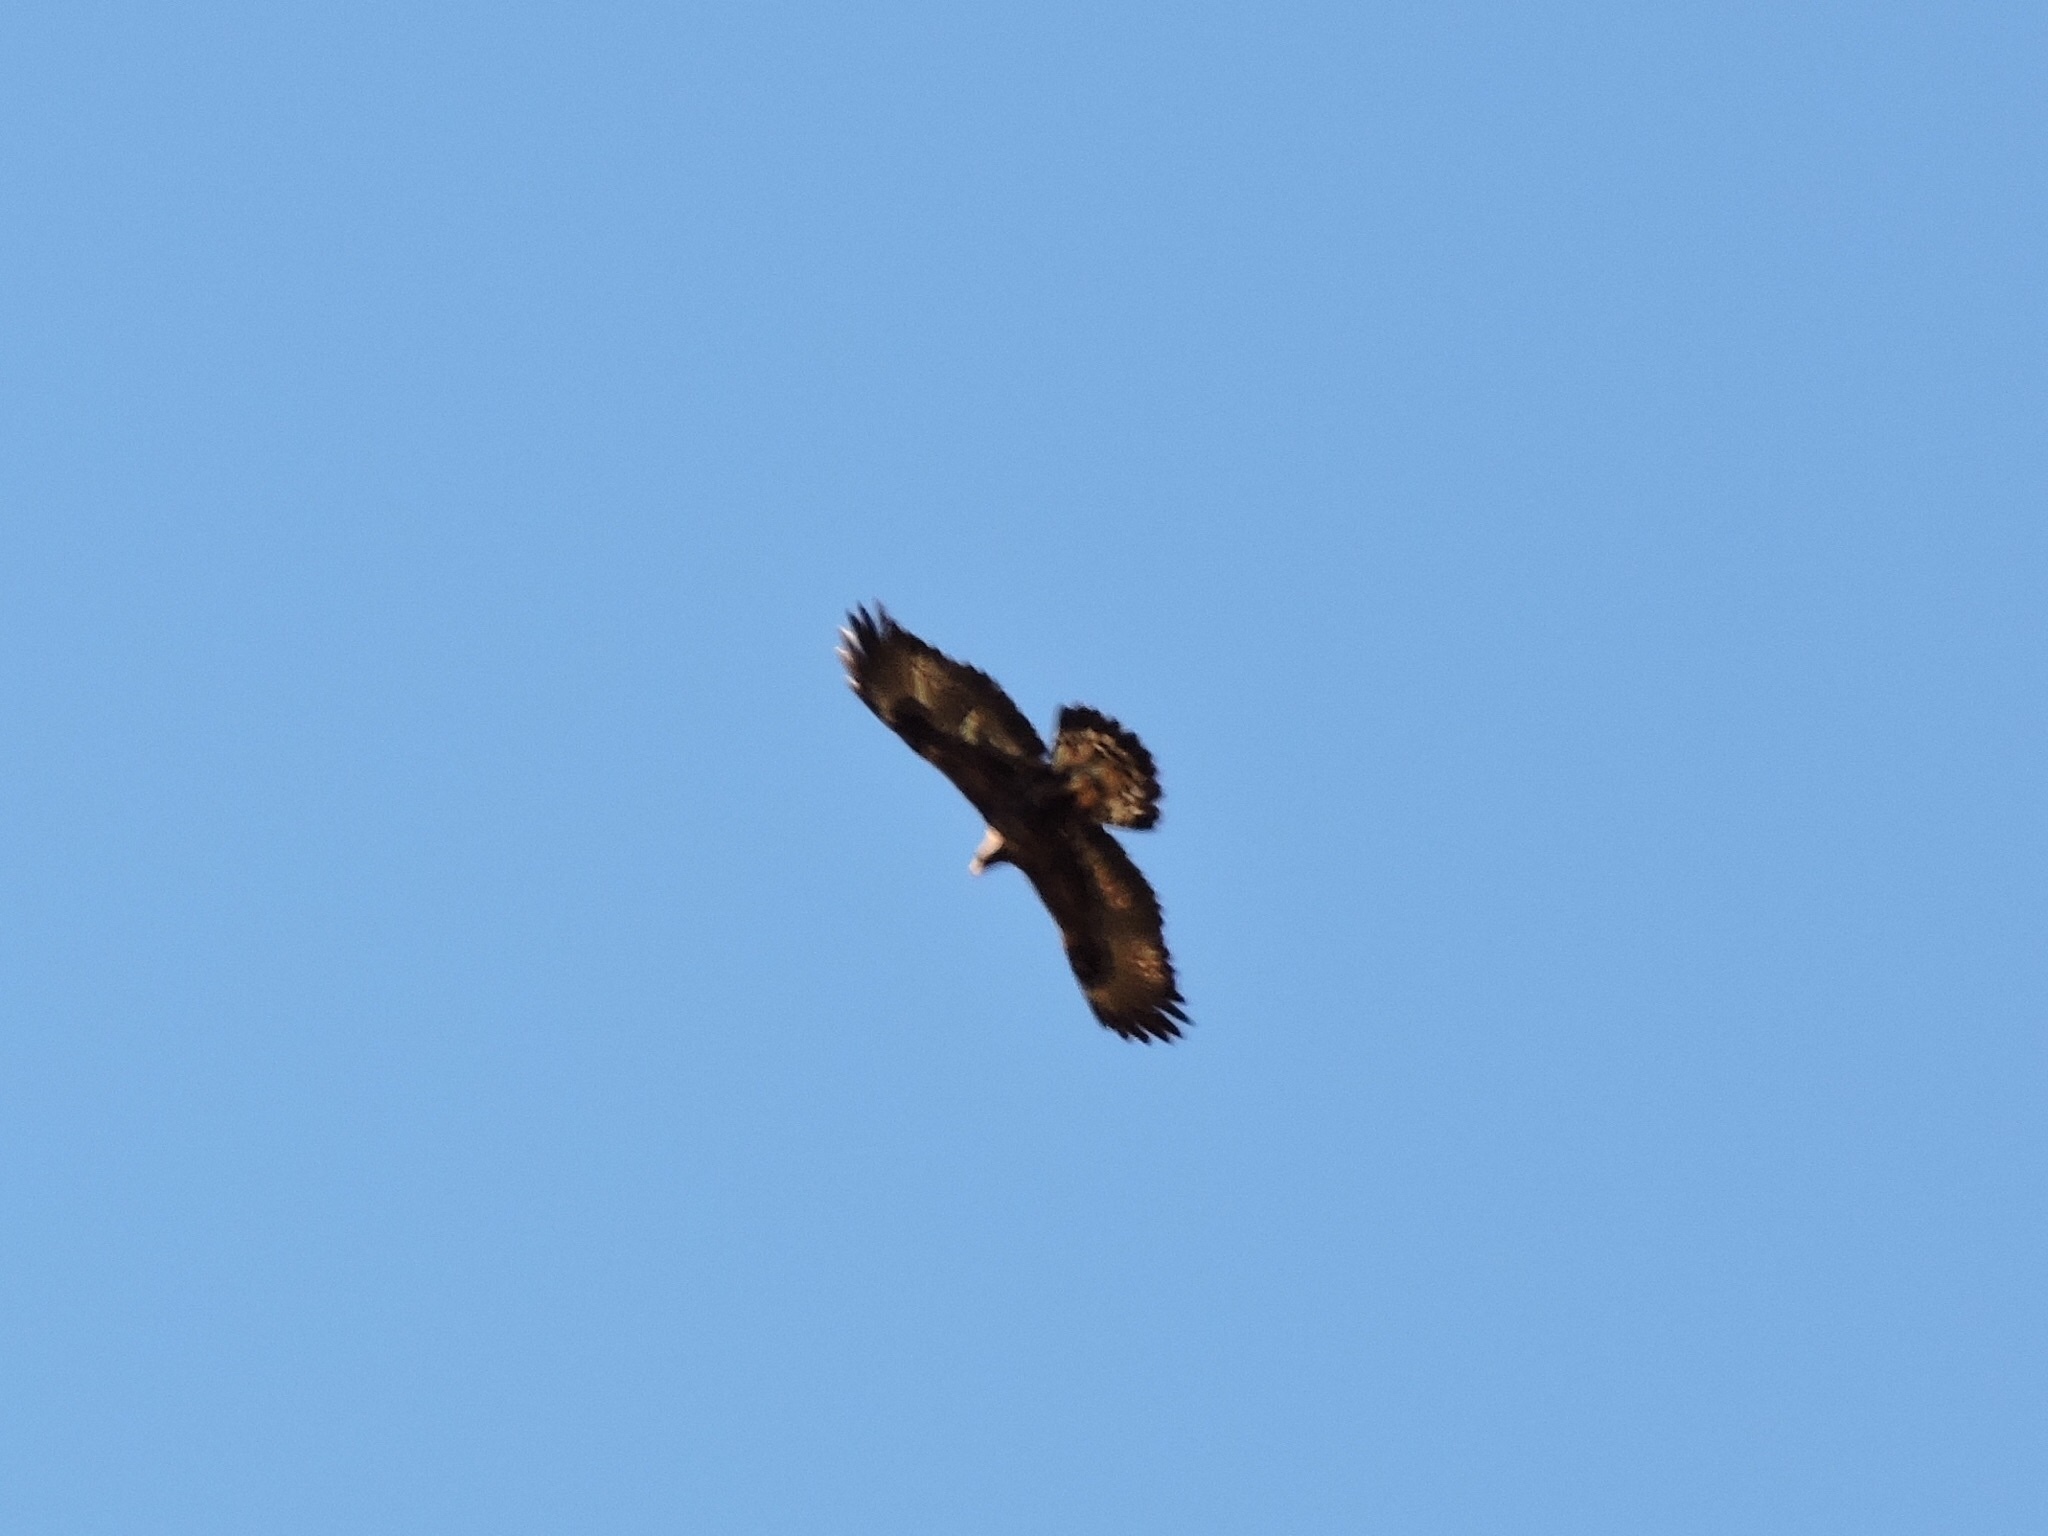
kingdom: Animalia
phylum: Chordata
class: Aves
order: Accipitriformes
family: Accipitridae
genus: Aquila
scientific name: Aquila chrysaetos
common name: Golden eagle
